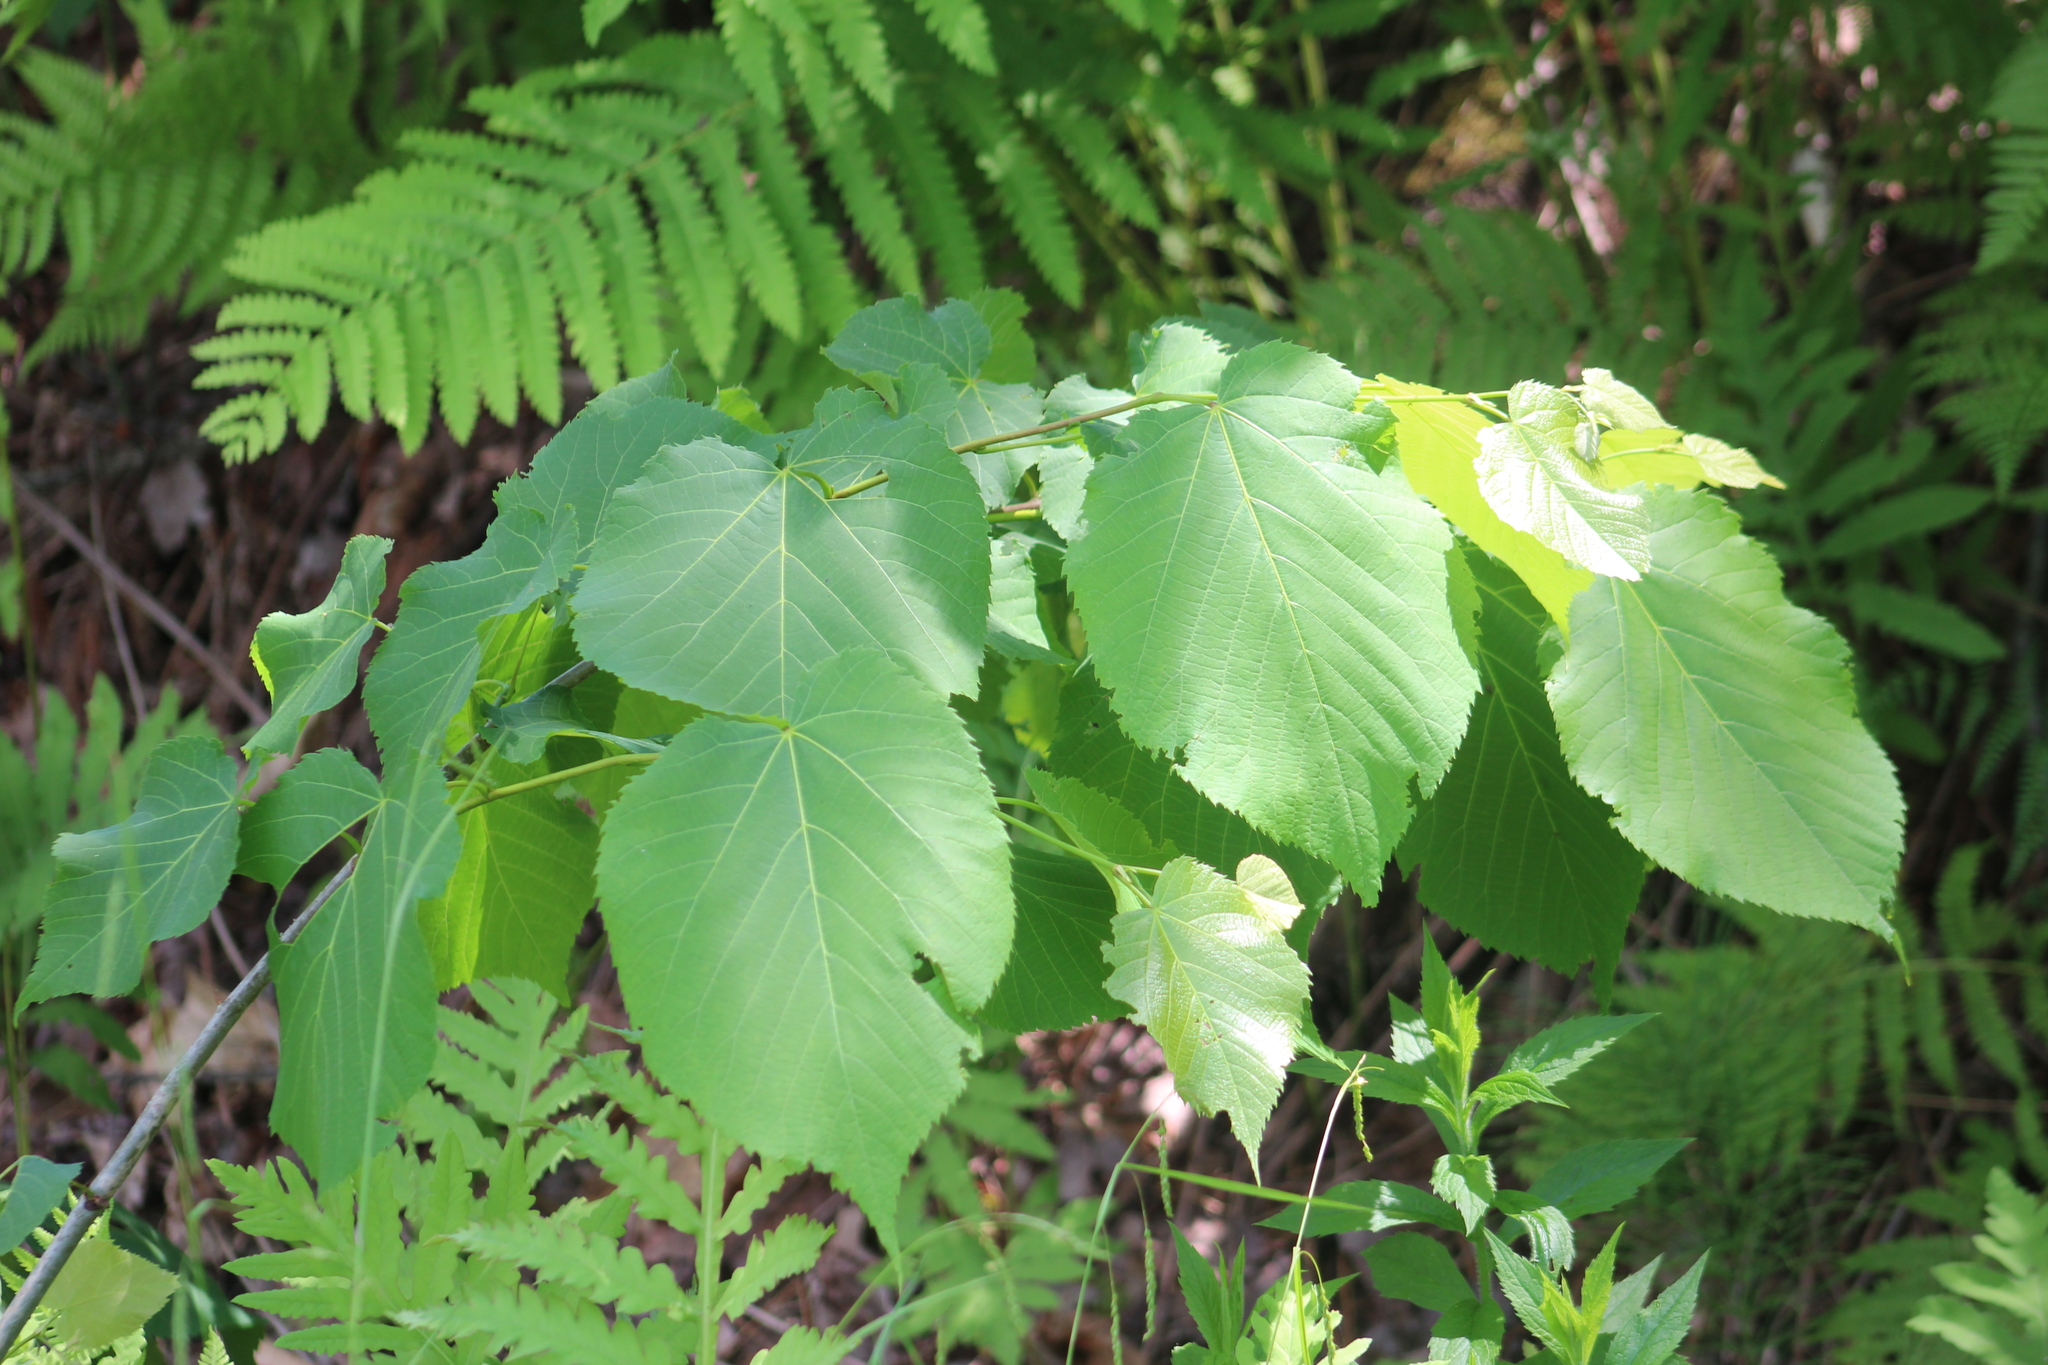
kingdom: Plantae
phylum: Tracheophyta
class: Magnoliopsida
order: Malvales
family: Malvaceae
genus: Tilia
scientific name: Tilia americana
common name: Basswood
